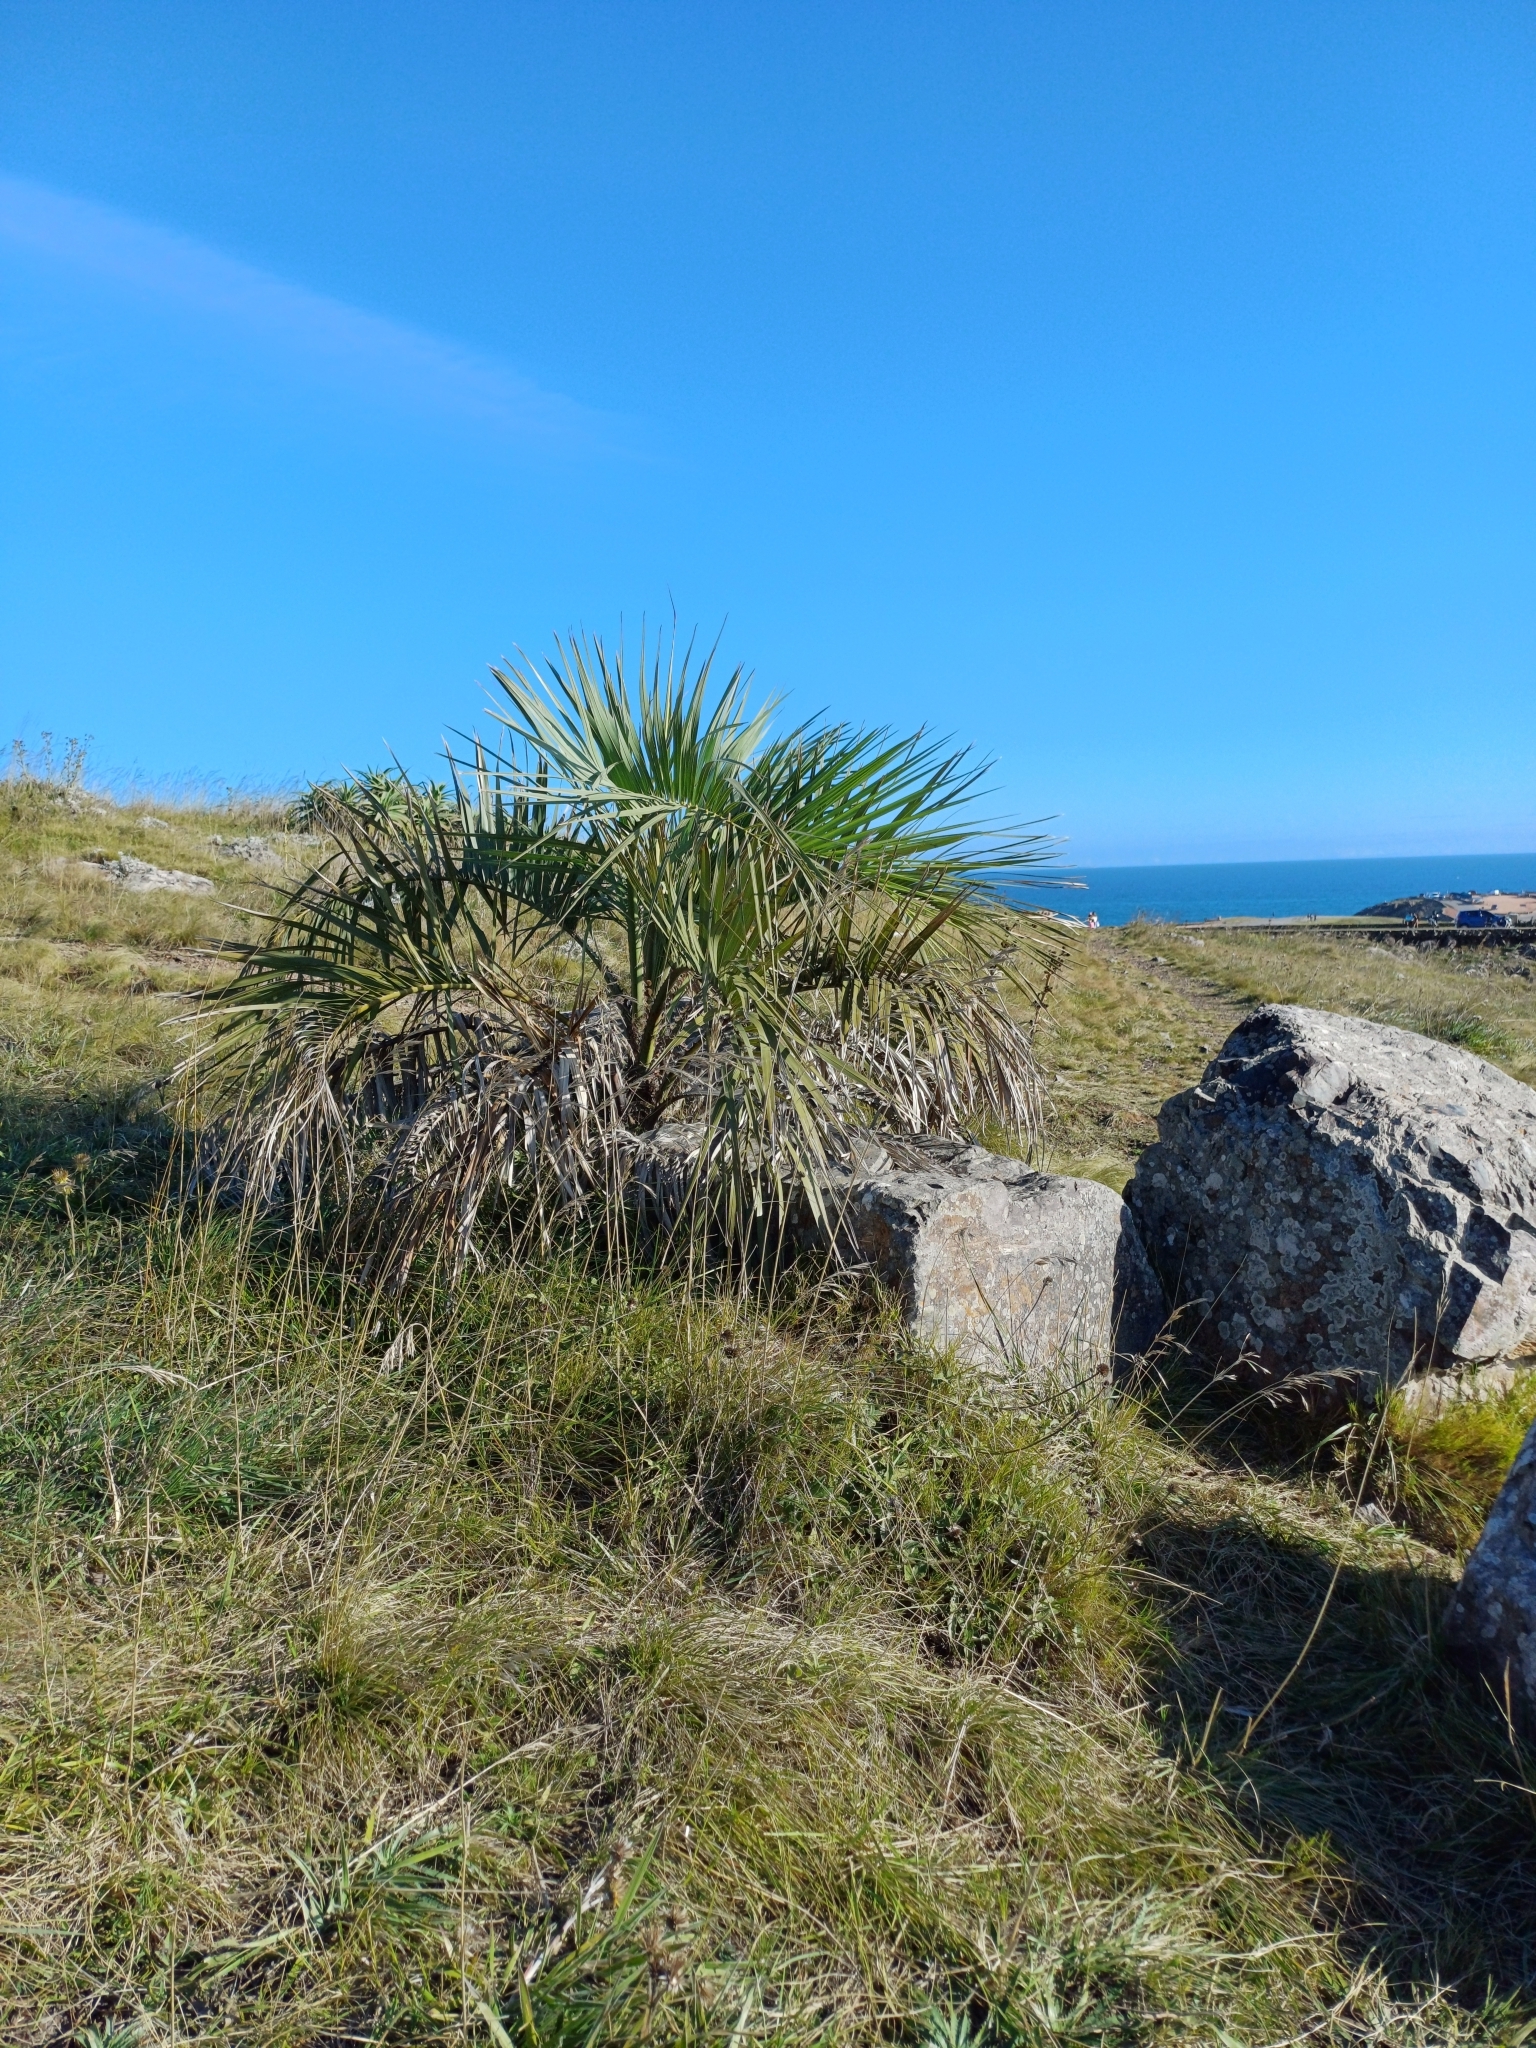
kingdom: Plantae
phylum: Tracheophyta
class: Liliopsida
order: Arecales
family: Arecaceae
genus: Butia
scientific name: Butia odorata
